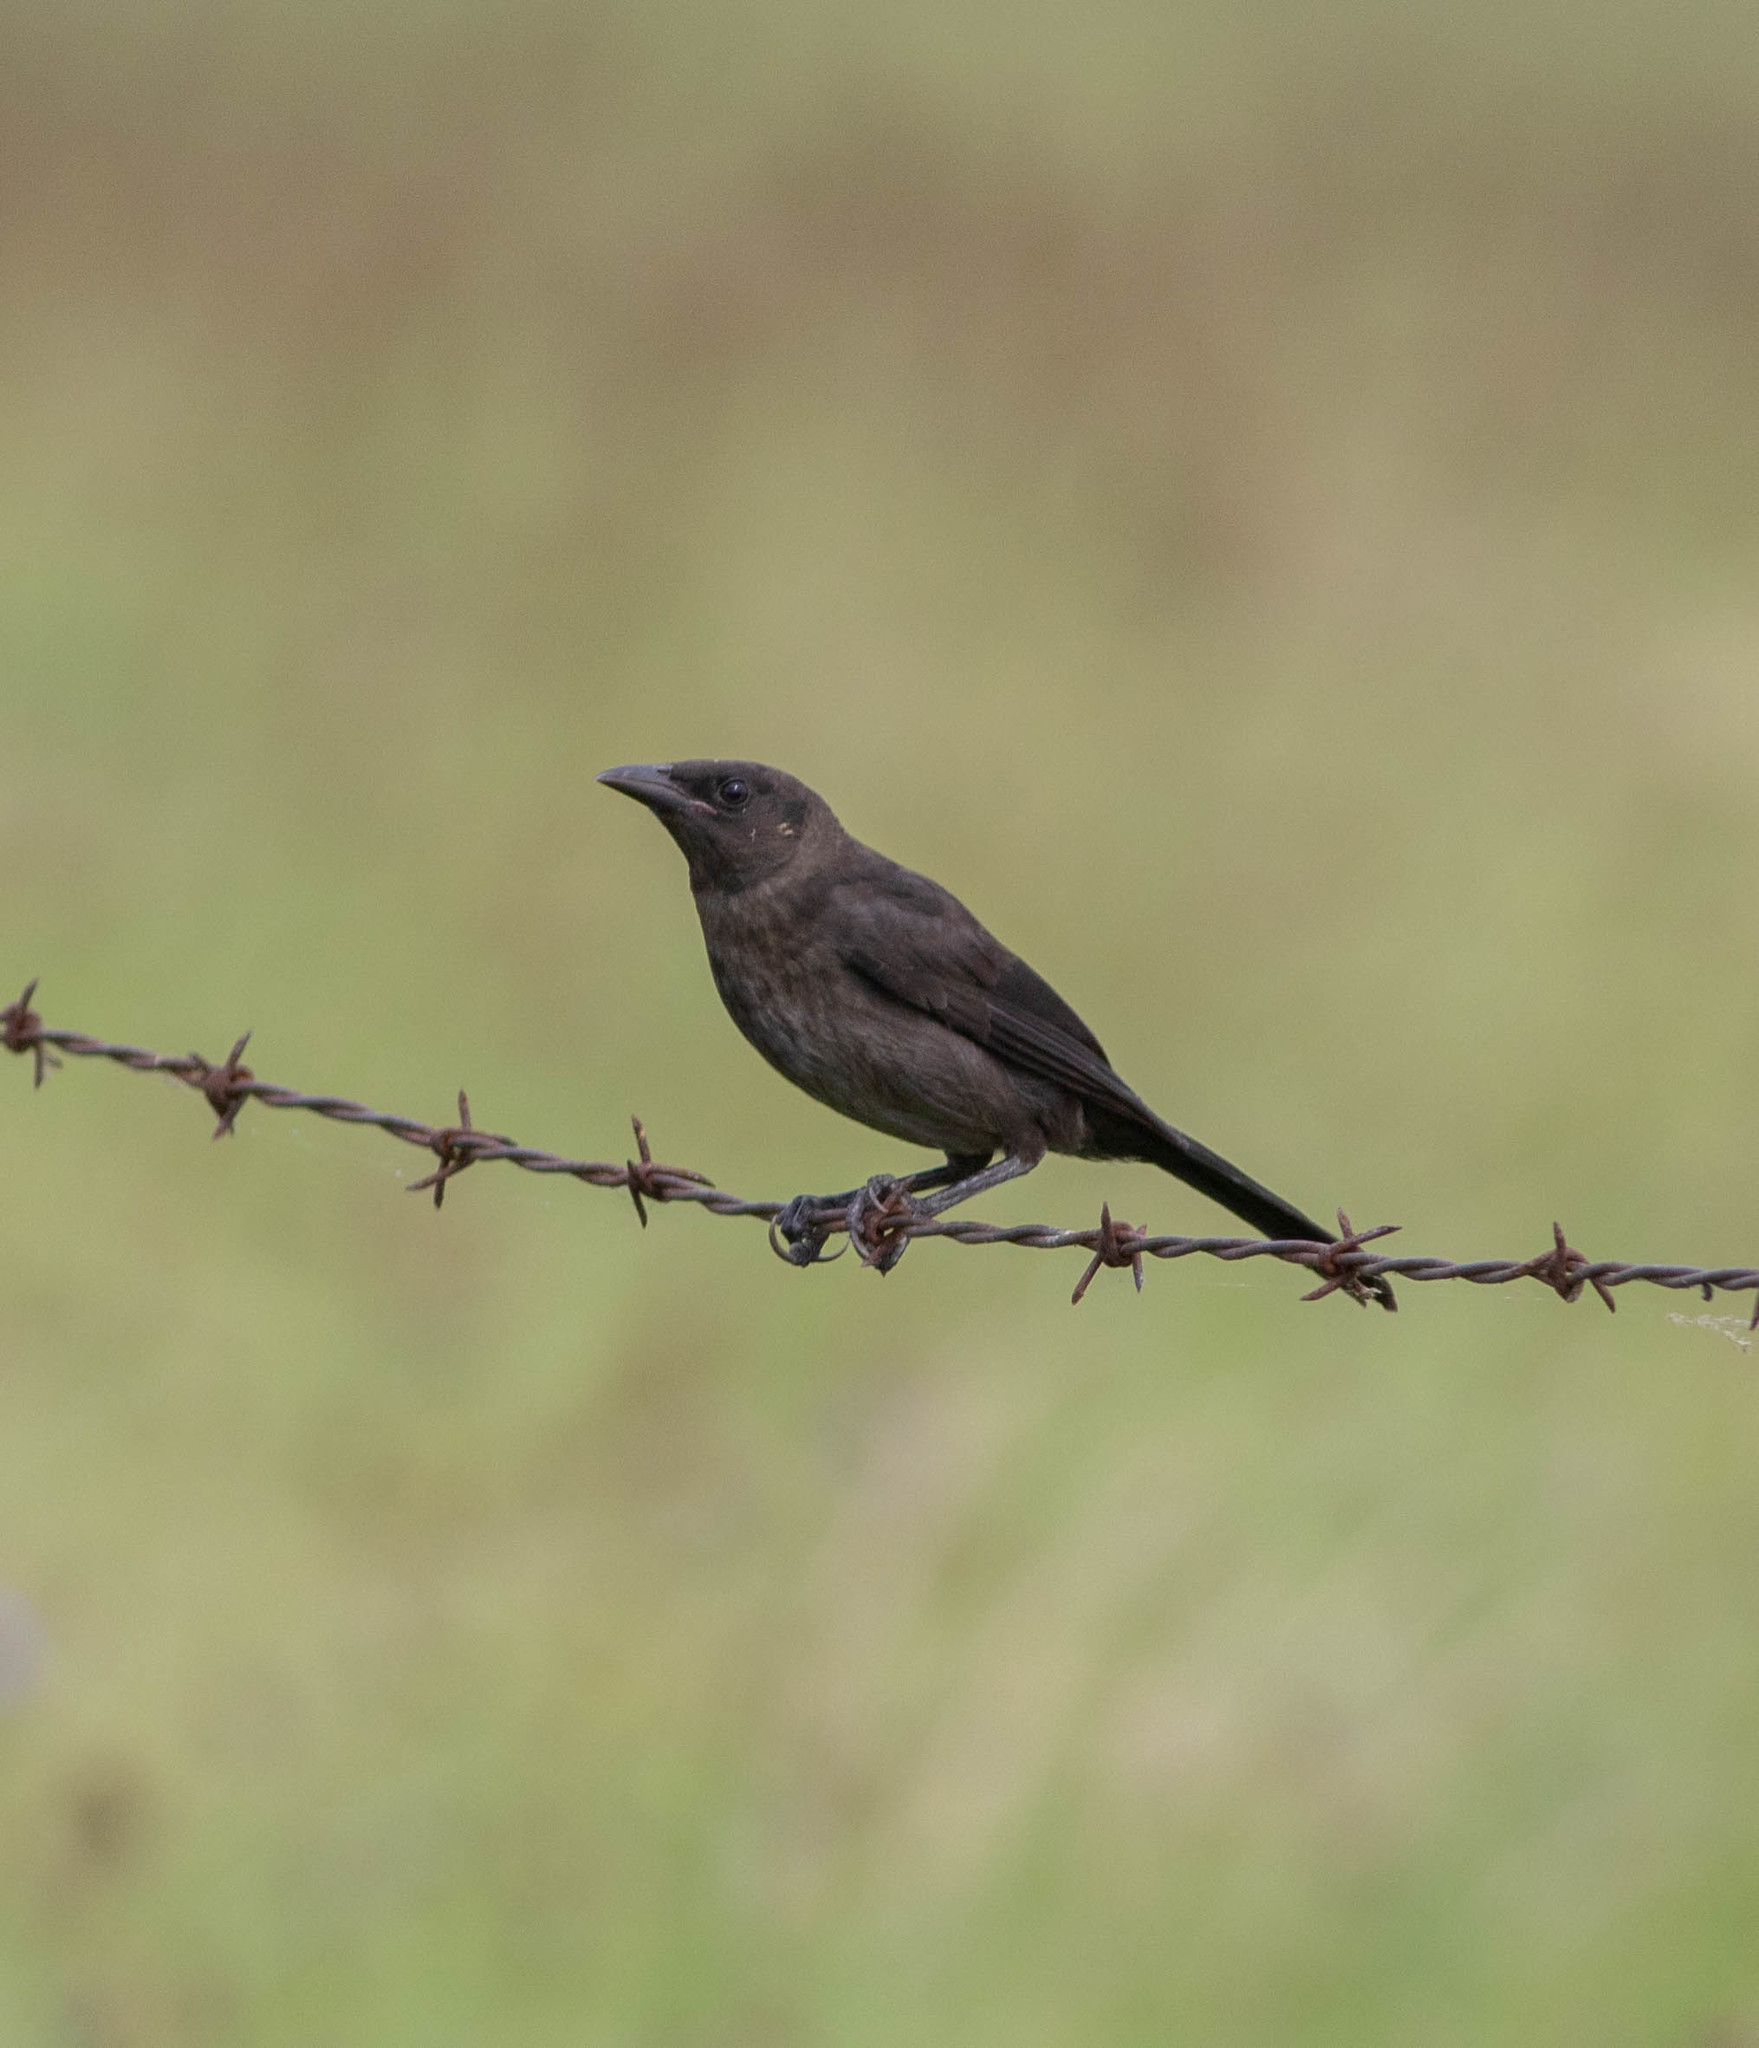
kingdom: Animalia
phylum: Chordata
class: Aves
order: Passeriformes
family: Icteridae
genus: Quiscalus
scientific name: Quiscalus quiscula
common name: Common grackle
